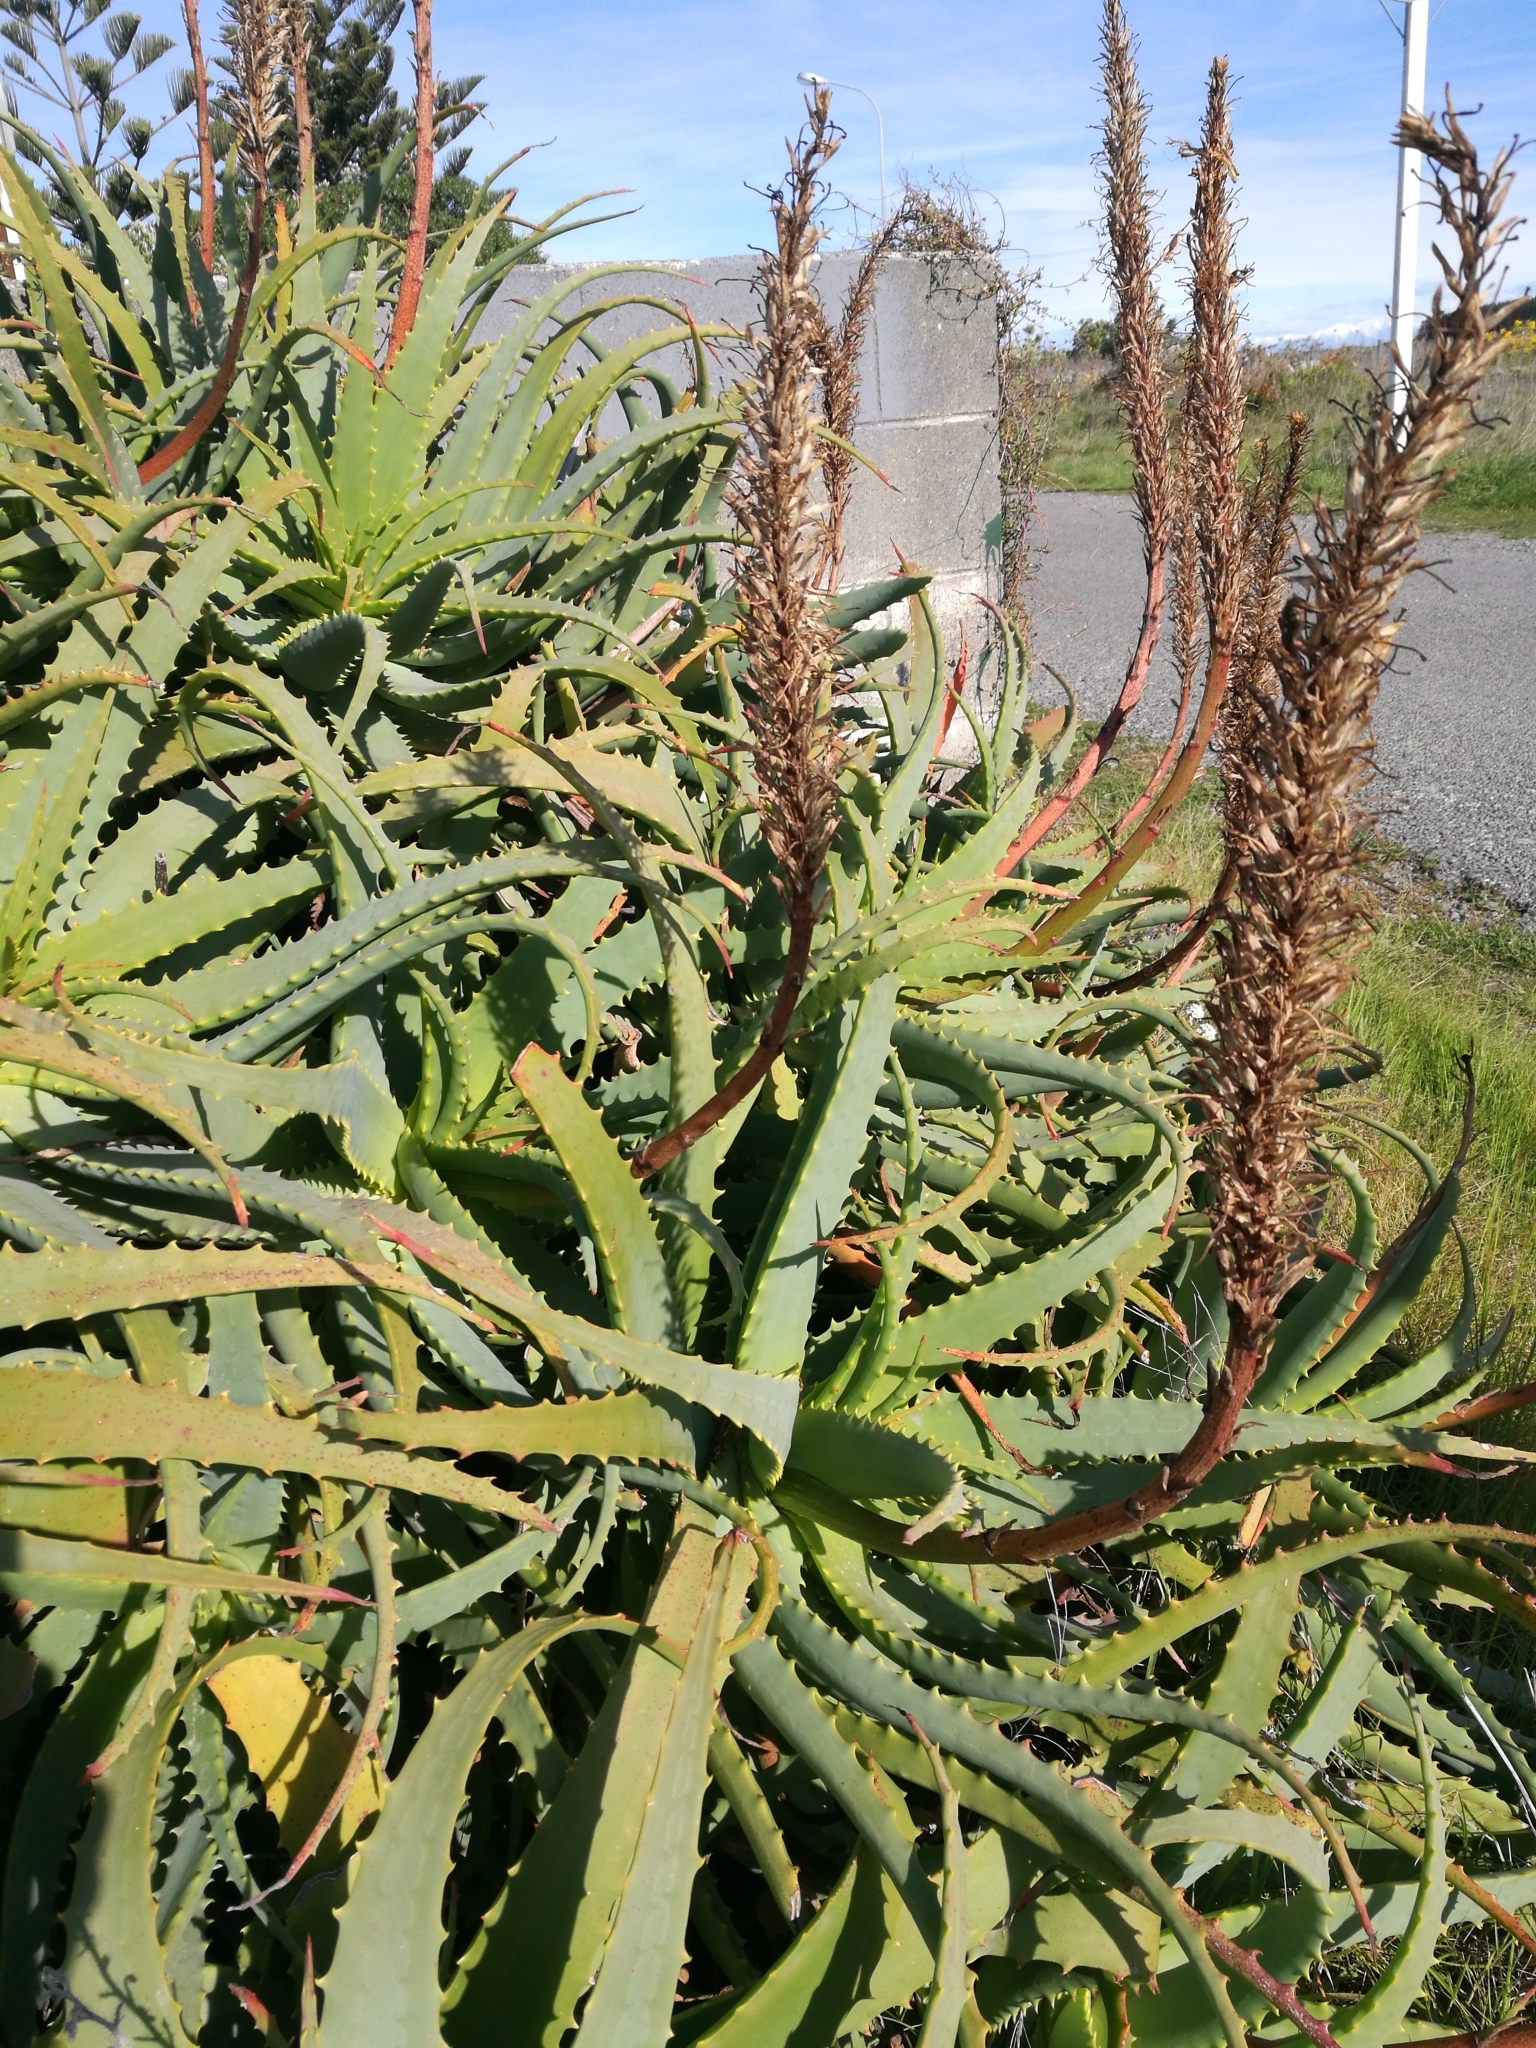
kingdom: Plantae
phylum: Tracheophyta
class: Liliopsida
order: Asparagales
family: Asphodelaceae
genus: Aloe
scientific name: Aloe arborescens
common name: Candelabra aloe
